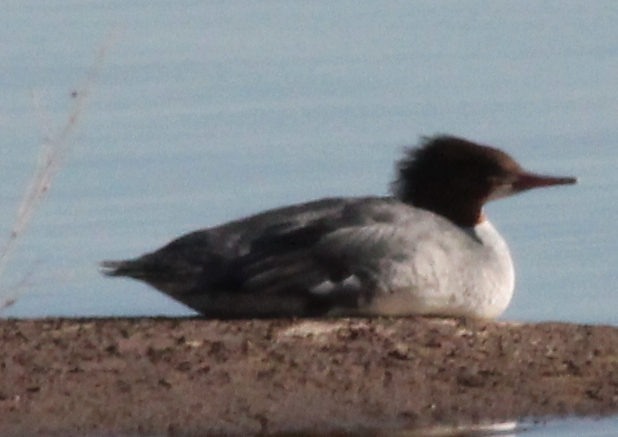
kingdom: Animalia
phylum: Chordata
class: Aves
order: Anseriformes
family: Anatidae
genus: Mergus
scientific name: Mergus merganser
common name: Common merganser
